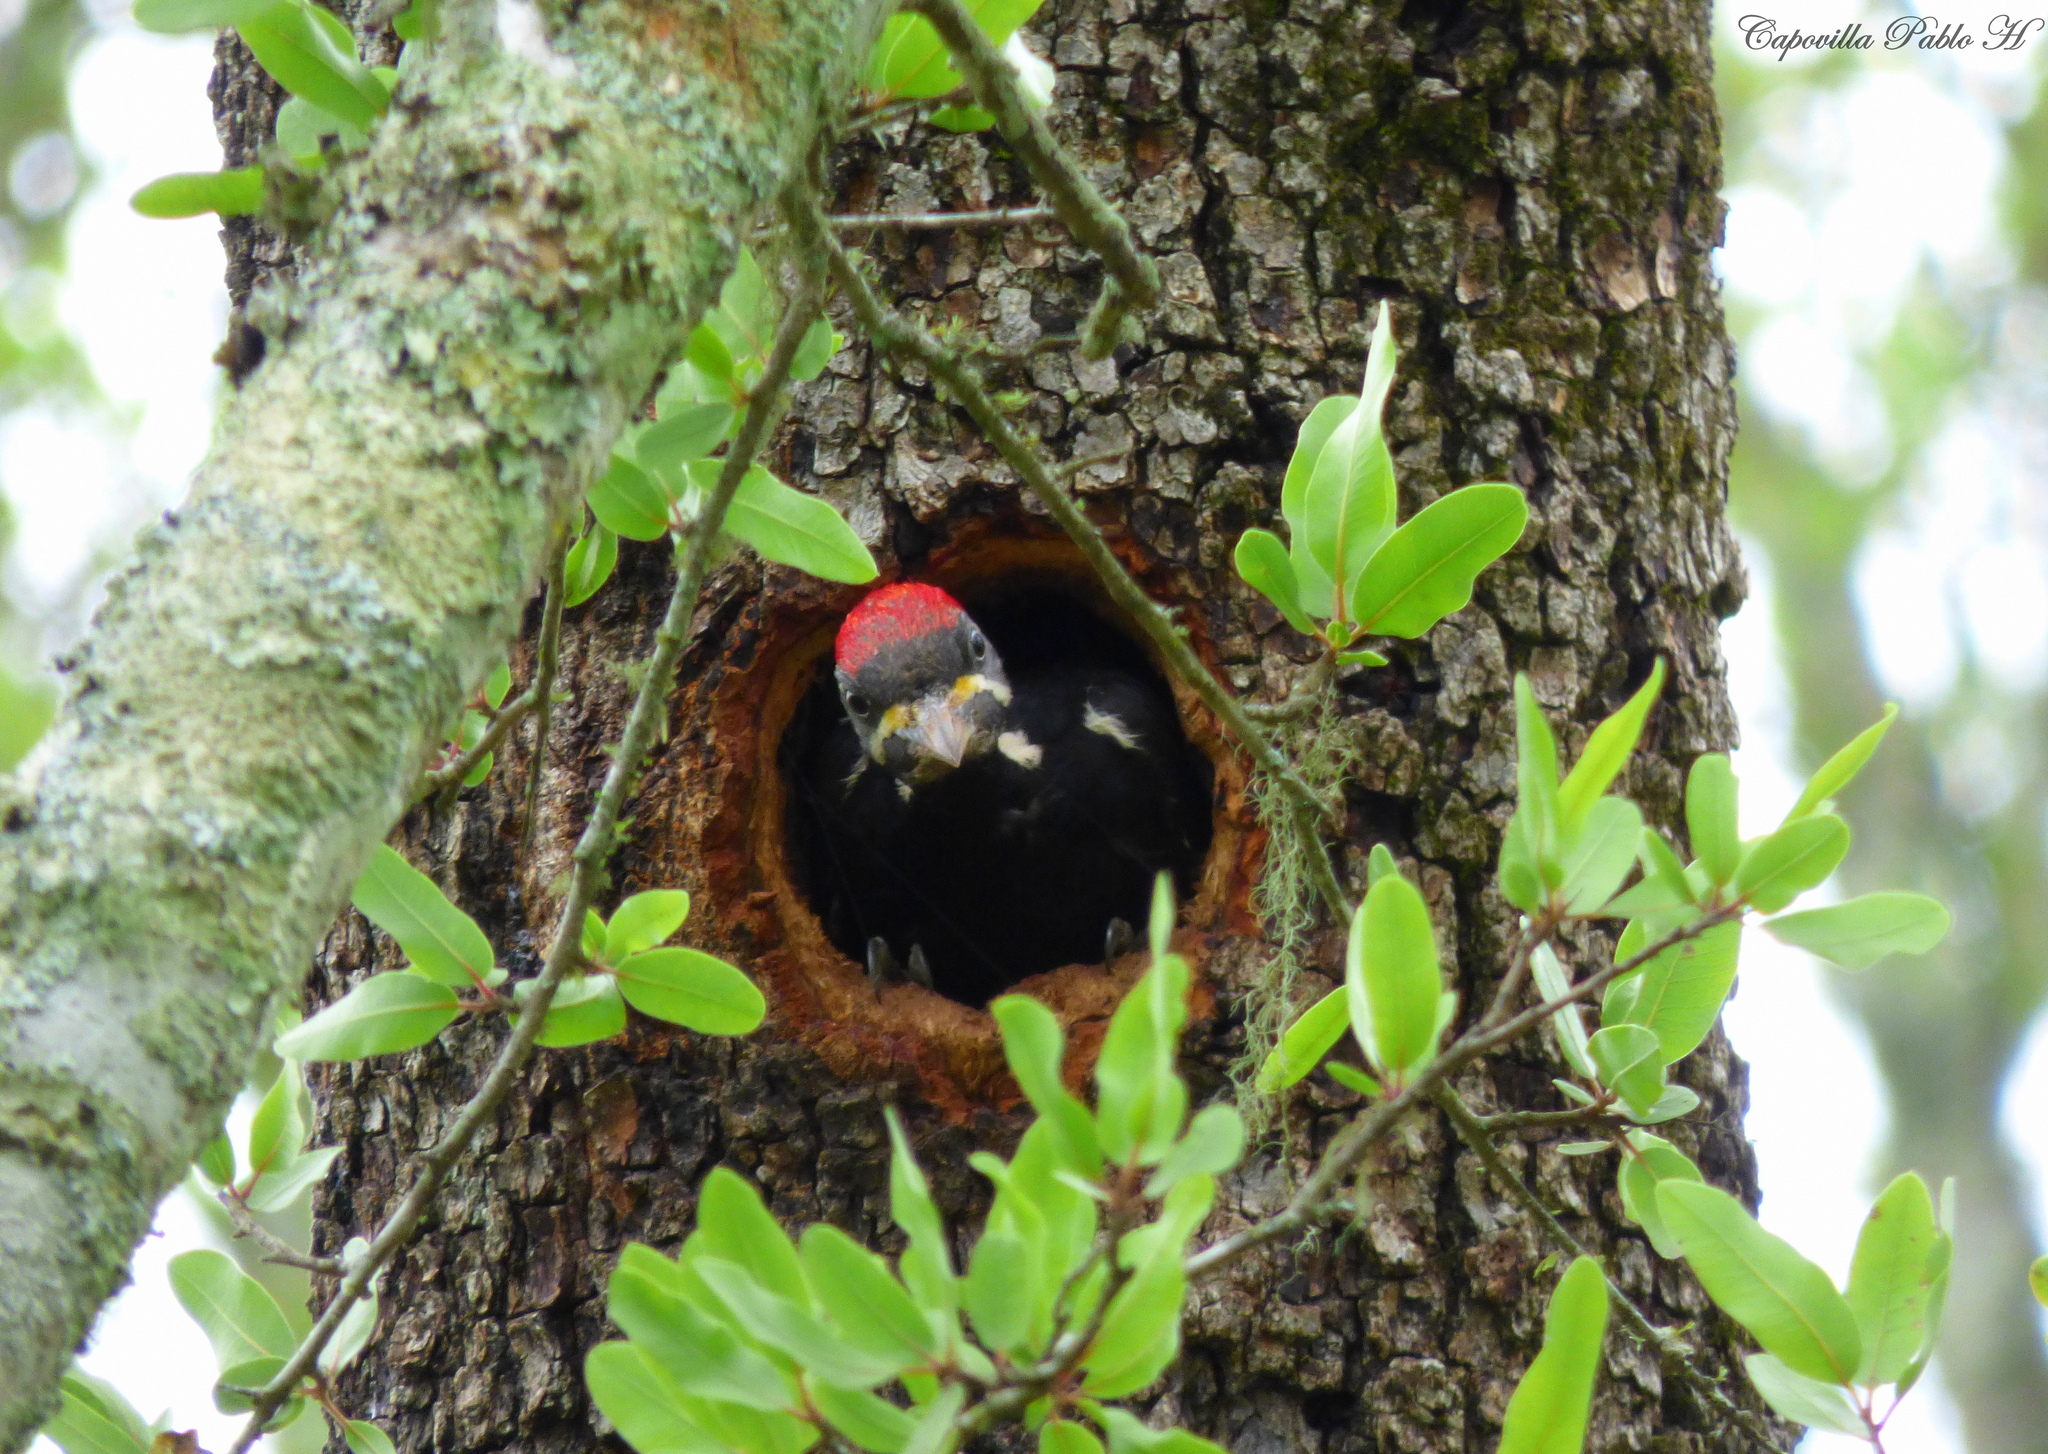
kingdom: Animalia
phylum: Chordata
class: Aves
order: Piciformes
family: Picidae
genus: Dryocopus
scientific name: Dryocopus schulzii
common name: Black-bodied woodpecker
